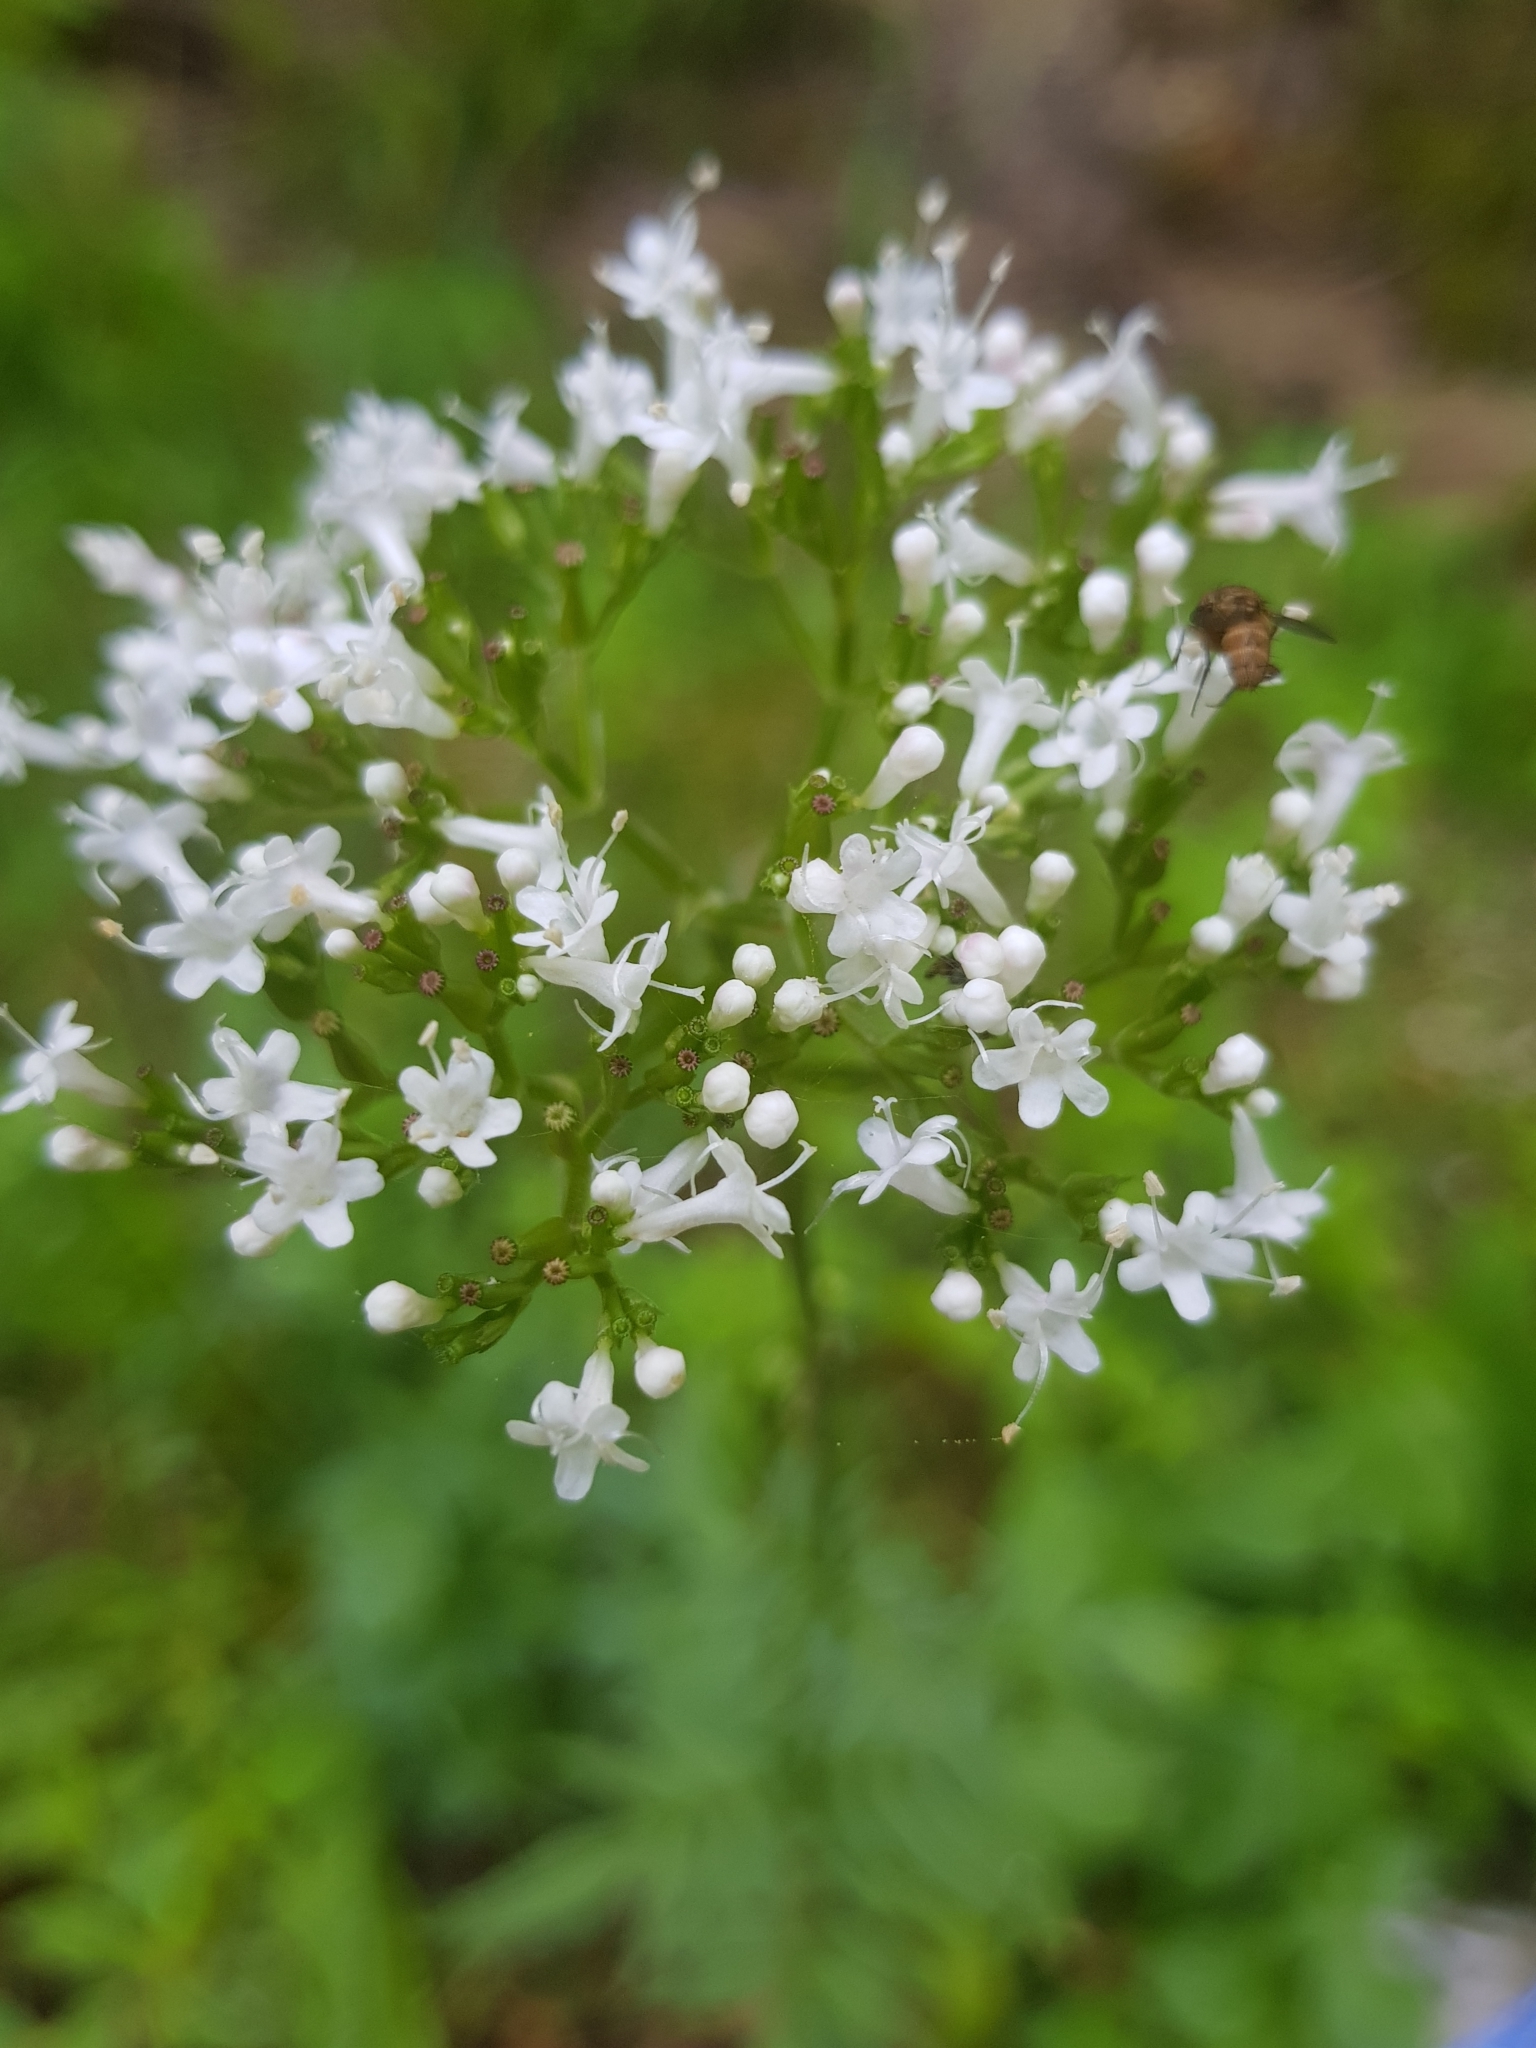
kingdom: Plantae
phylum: Tracheophyta
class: Magnoliopsida
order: Dipsacales
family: Caprifoliaceae
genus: Valeriana
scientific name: Valeriana dioica
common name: Marsh valerian
